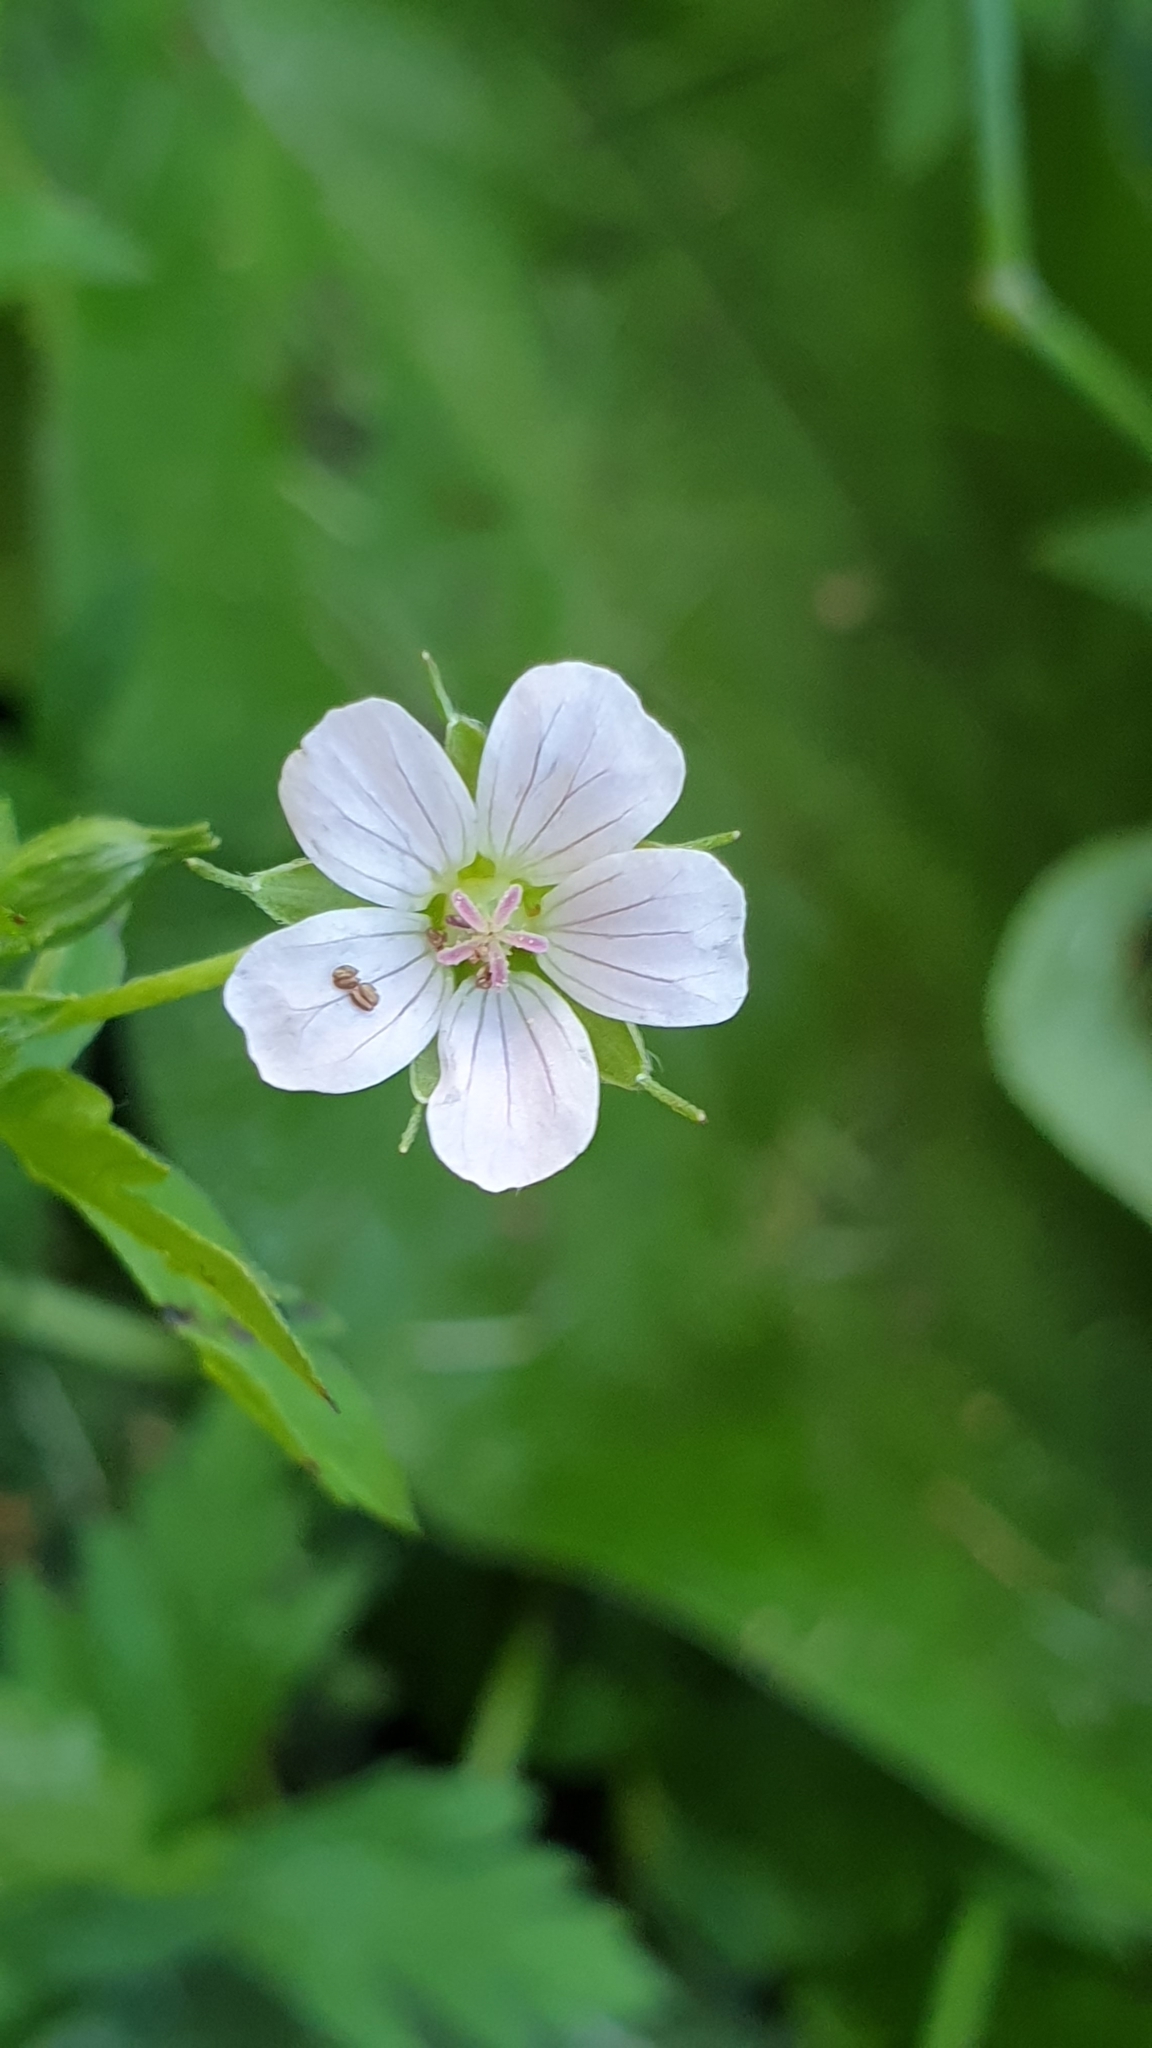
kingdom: Plantae
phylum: Tracheophyta
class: Magnoliopsida
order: Geraniales
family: Geraniaceae
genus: Geranium
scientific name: Geranium sibiricum
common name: Siberian crane's-bill
